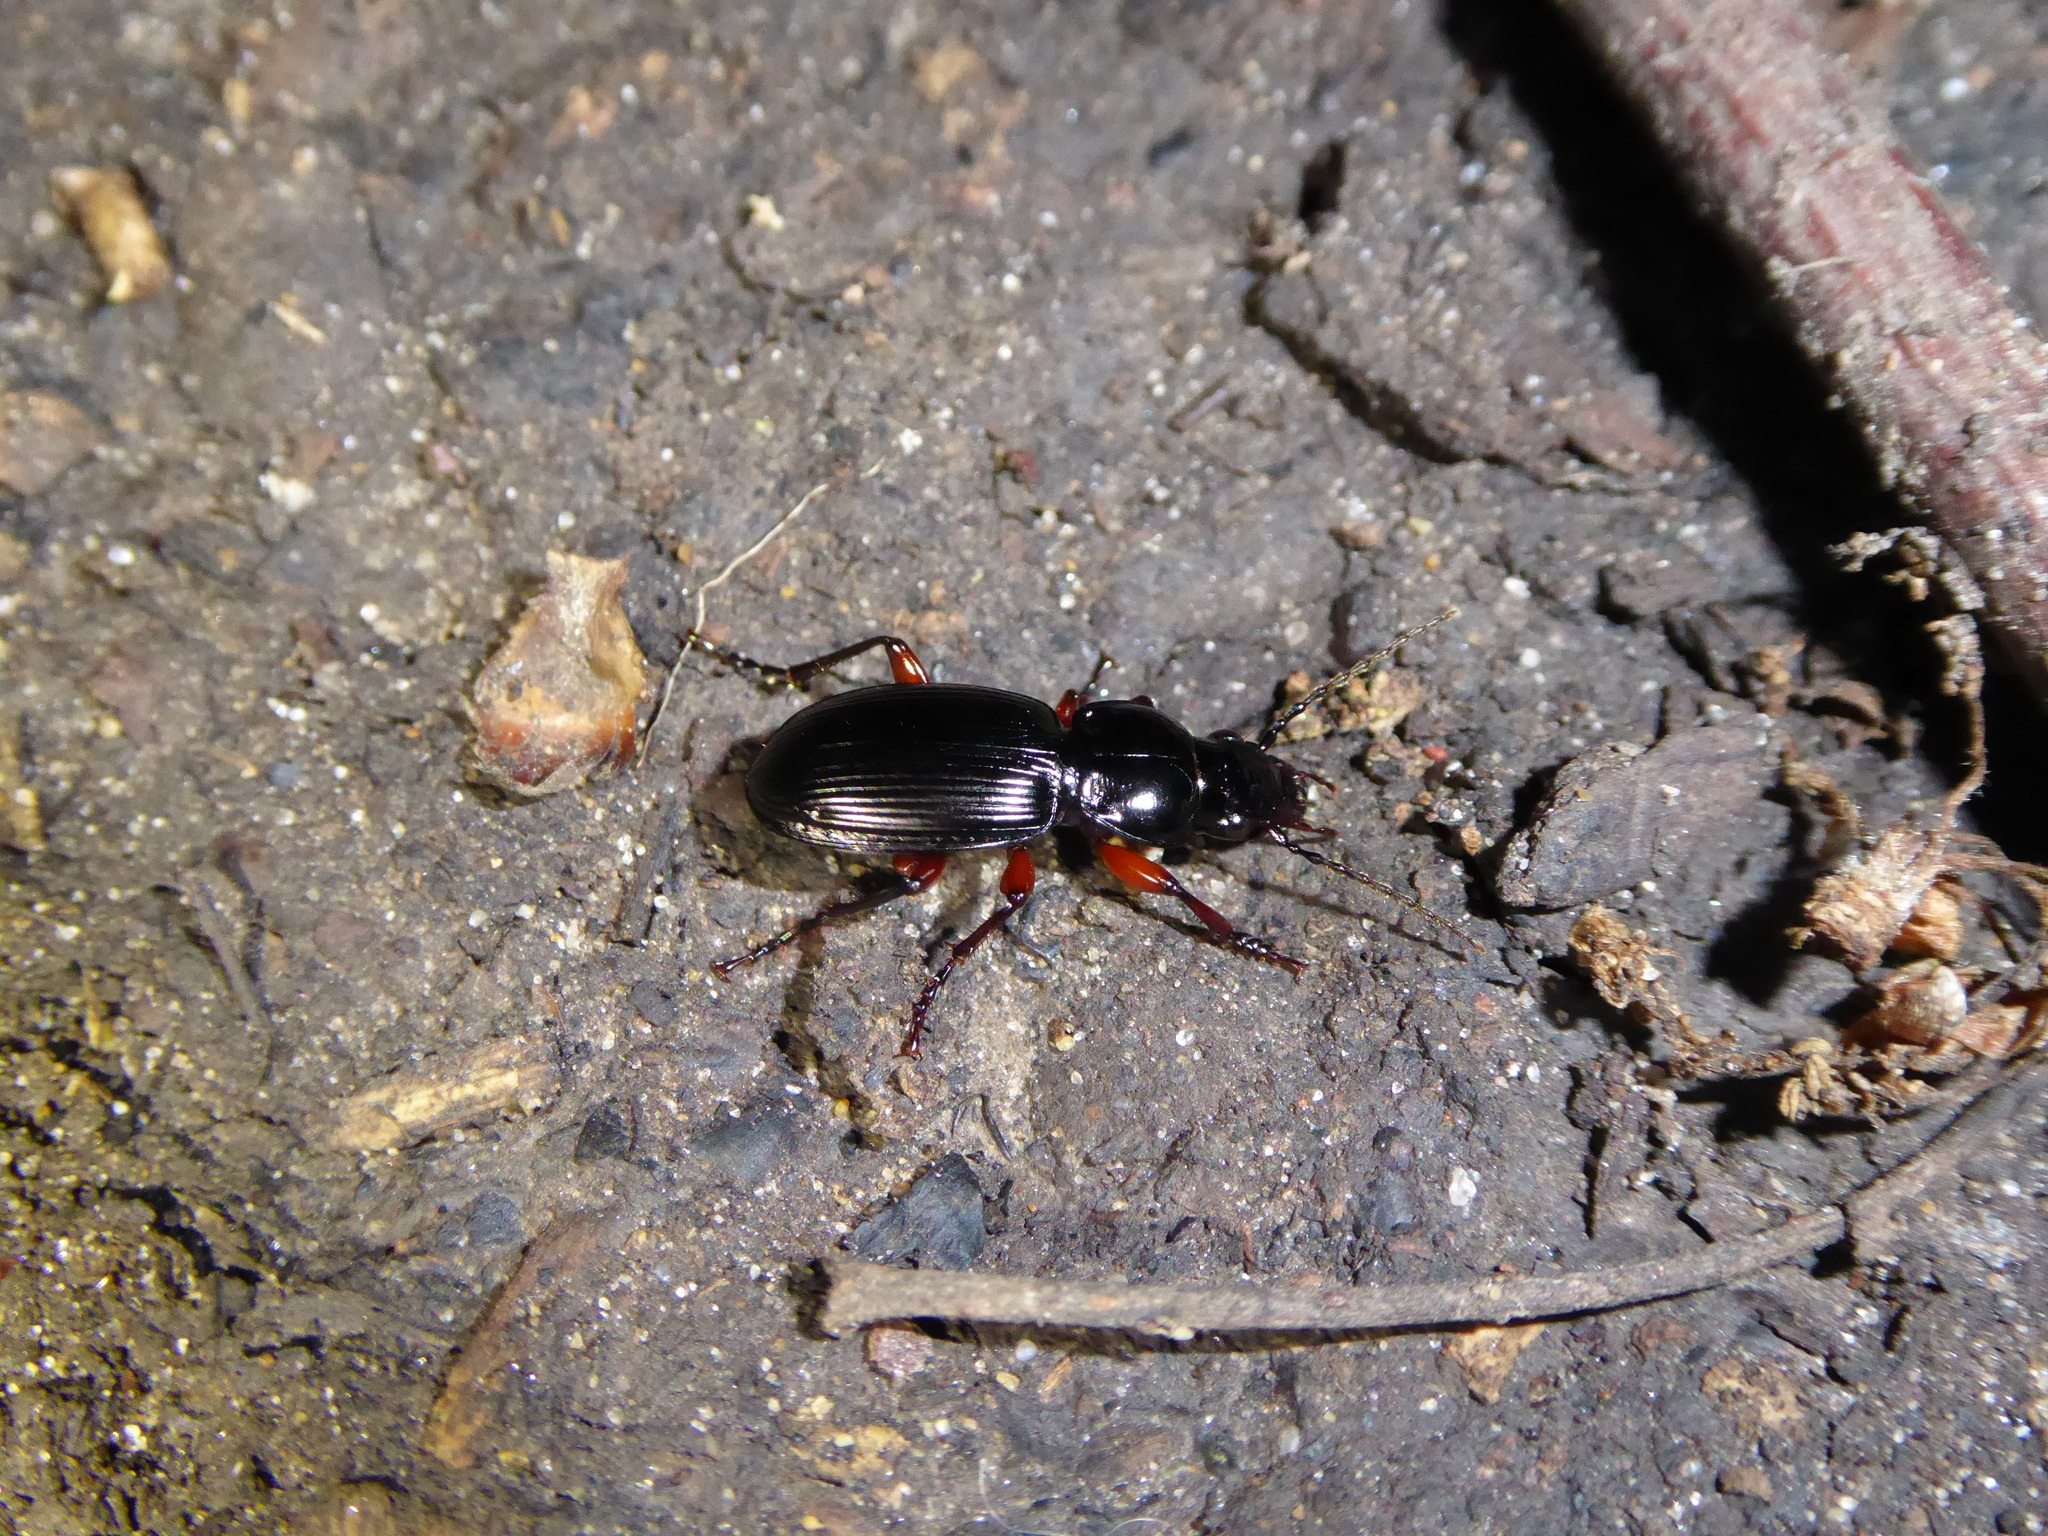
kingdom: Animalia
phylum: Arthropoda
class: Insecta
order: Coleoptera
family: Carabidae
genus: Pterostichus
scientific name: Pterostichus madidus
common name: Black clock
